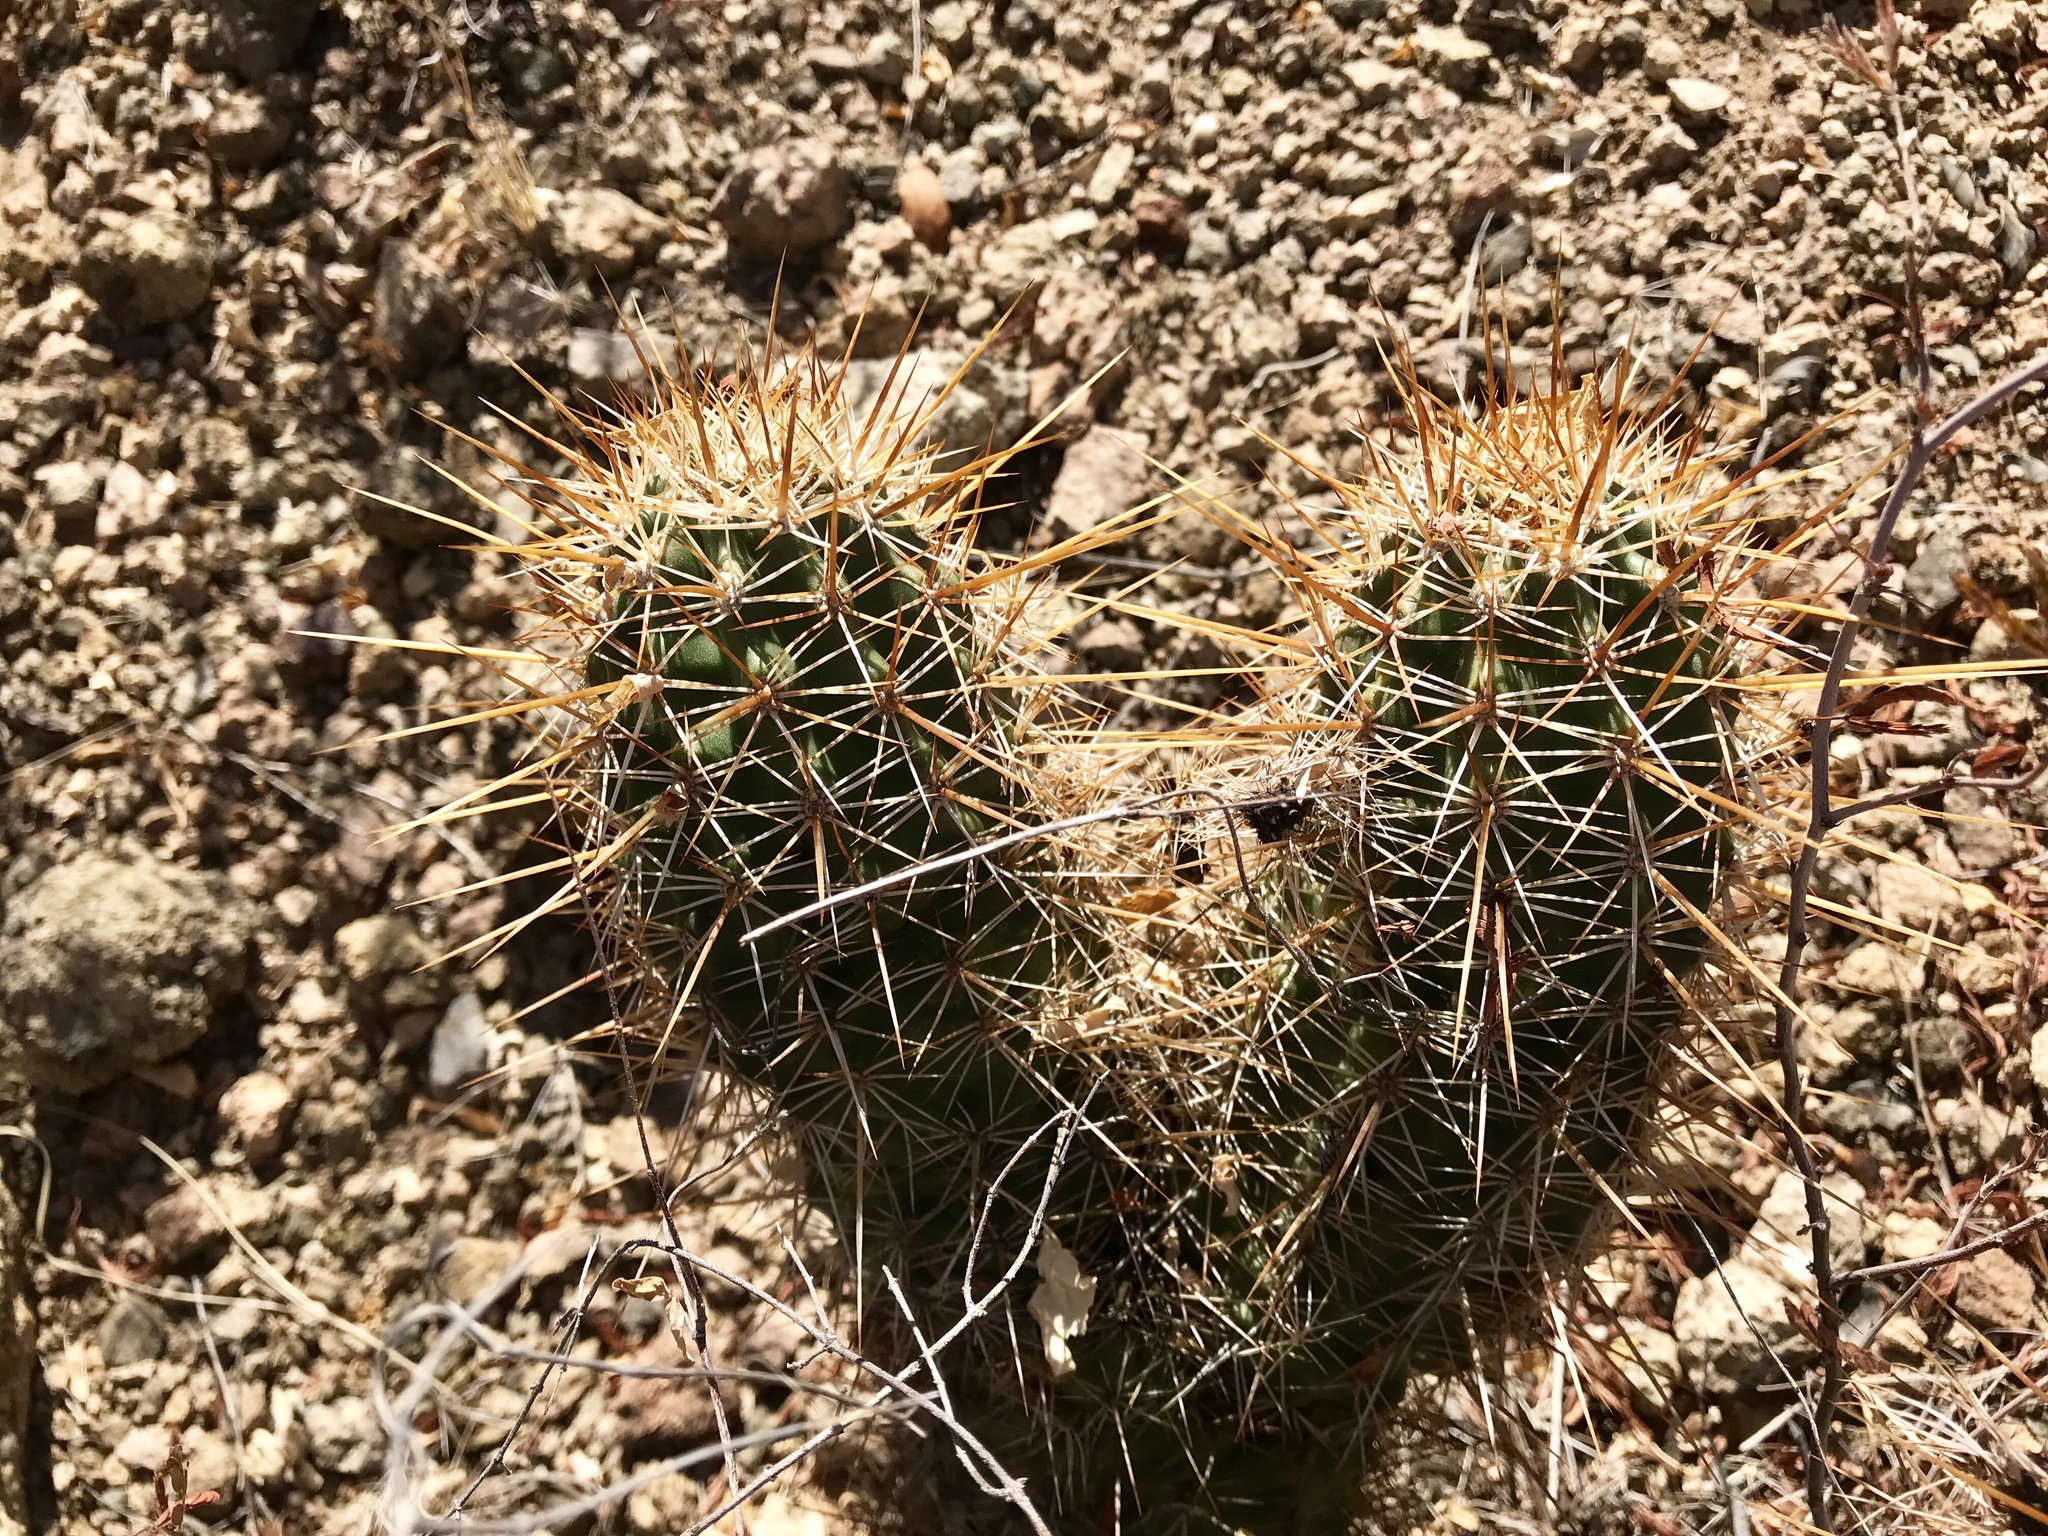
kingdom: Plantae
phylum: Tracheophyta
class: Magnoliopsida
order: Caryophyllales
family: Cactaceae
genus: Echinocereus
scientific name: Echinocereus fasciculatus
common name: Bundle hedgehog
